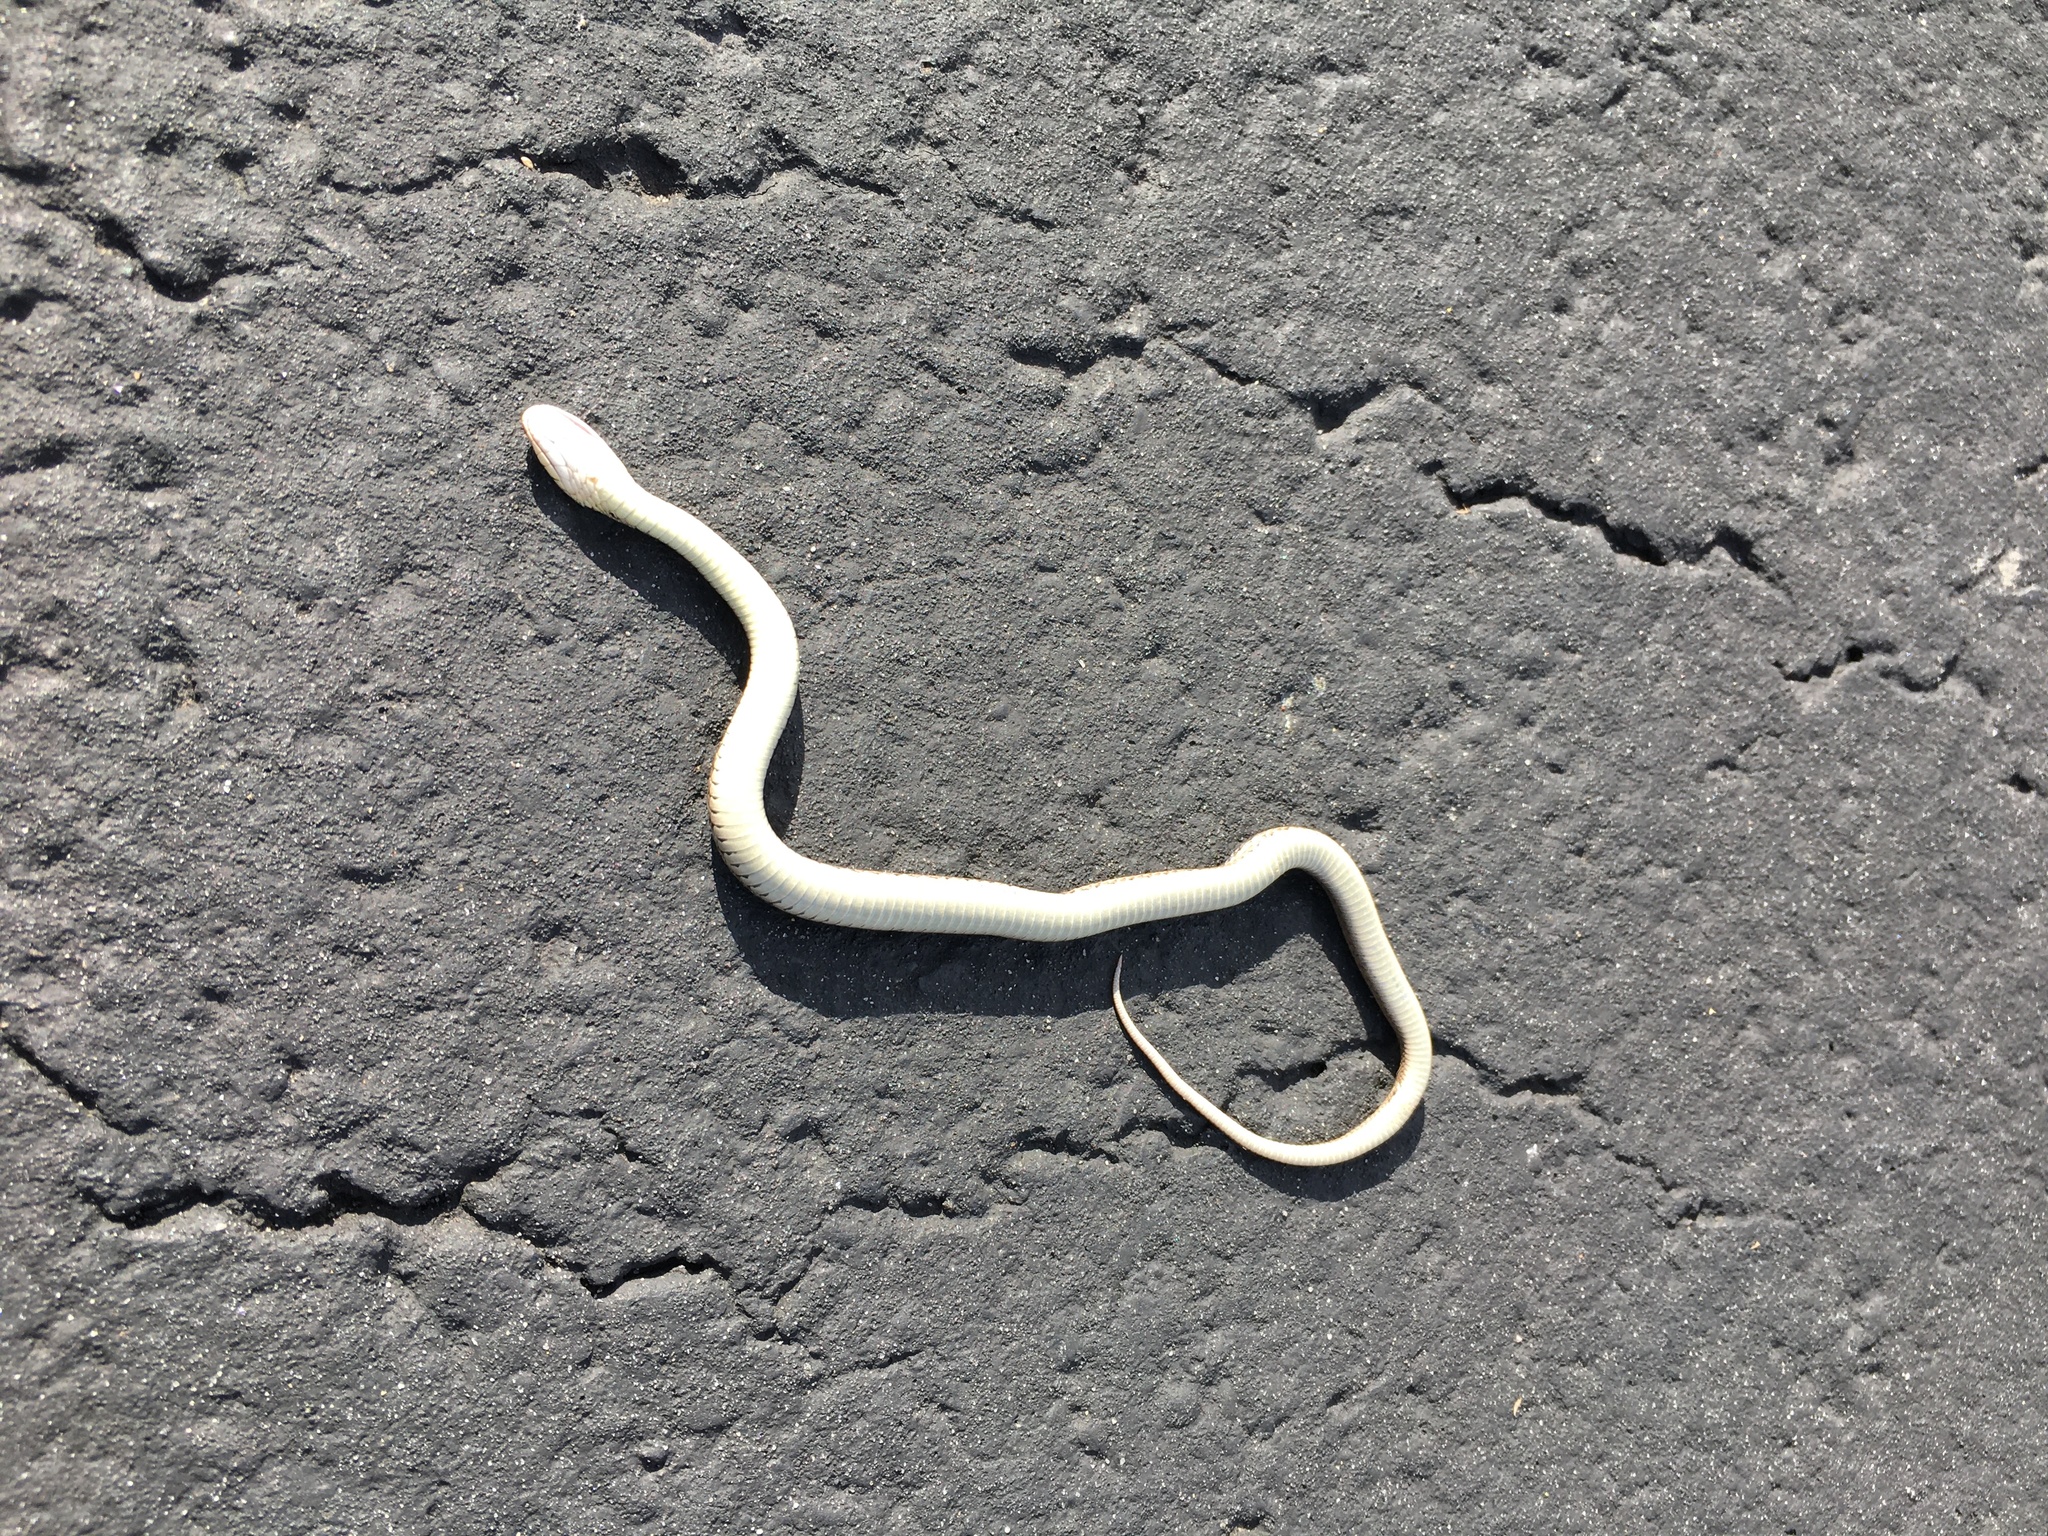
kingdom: Animalia
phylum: Chordata
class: Squamata
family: Colubridae
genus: Thamnophis
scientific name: Thamnophis sirtalis
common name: Common garter snake
